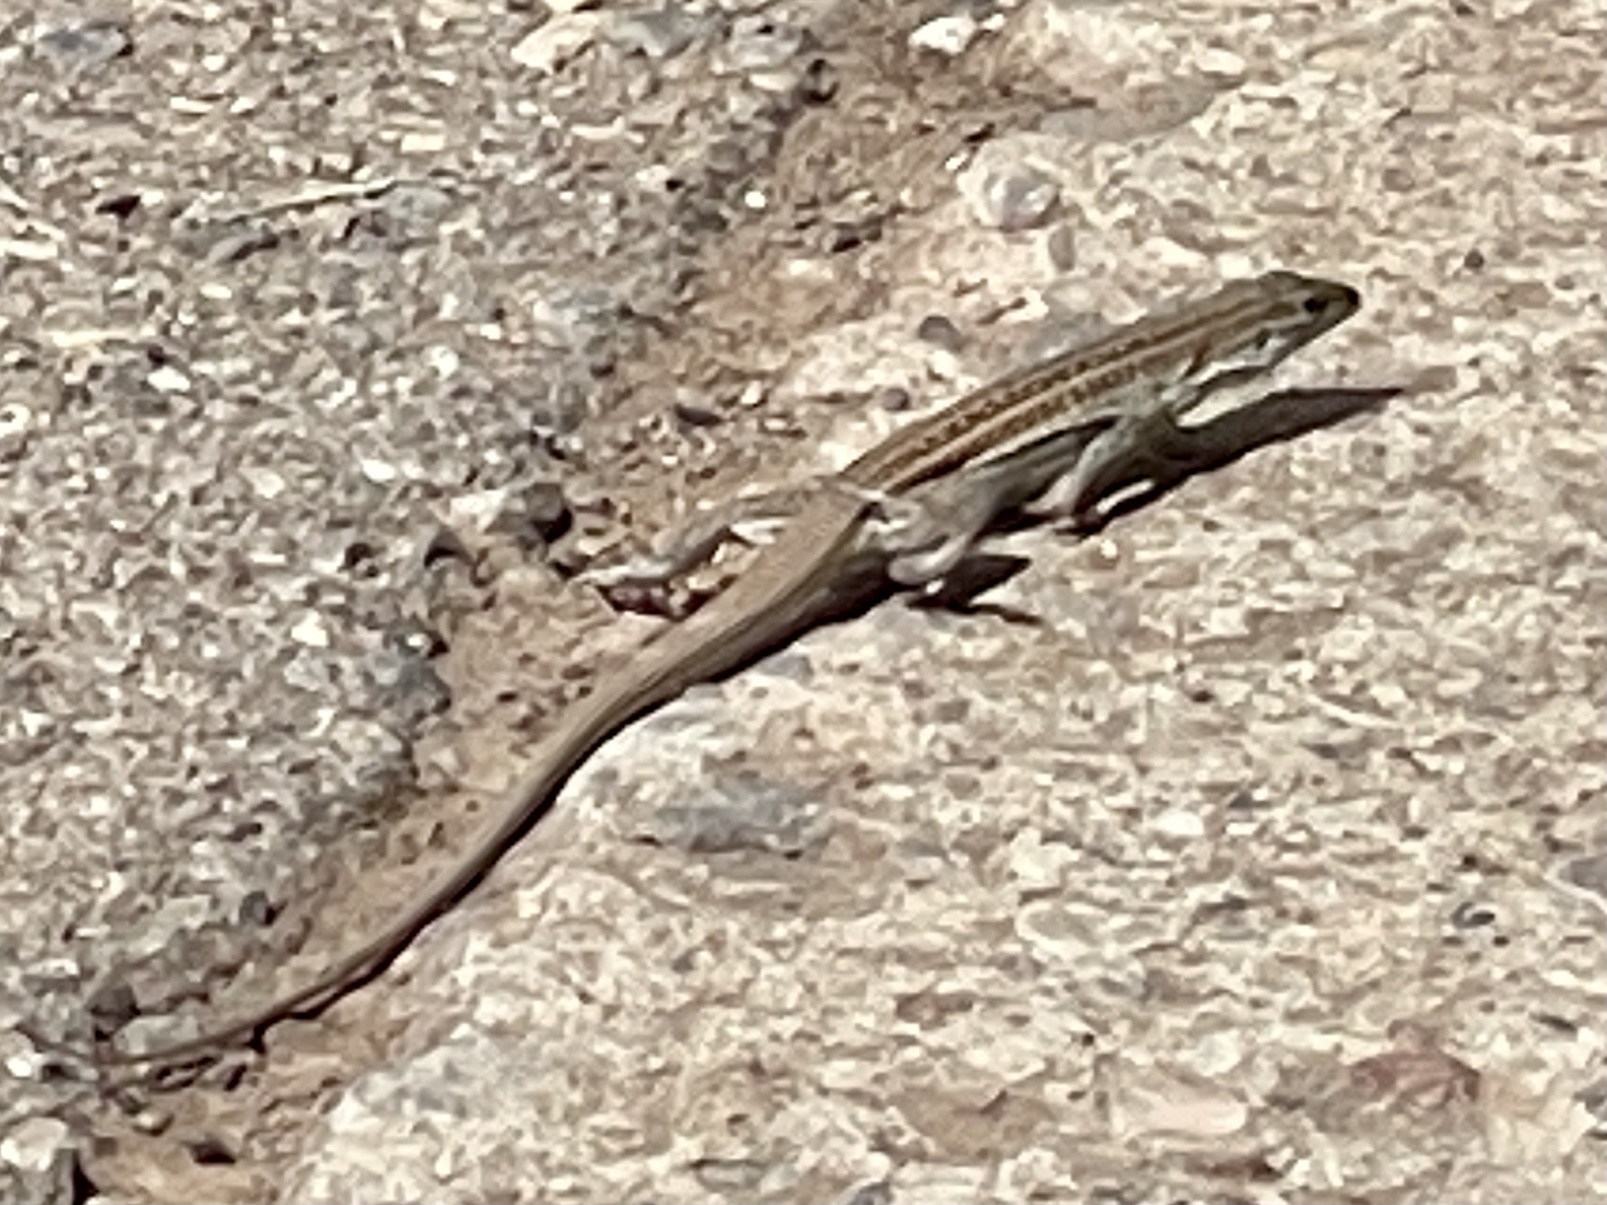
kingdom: Animalia
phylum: Chordata
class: Squamata
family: Teiidae
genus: Aspidoscelis
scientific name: Aspidoscelis exsanguis
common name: Chihuahuan spotted whiptail
